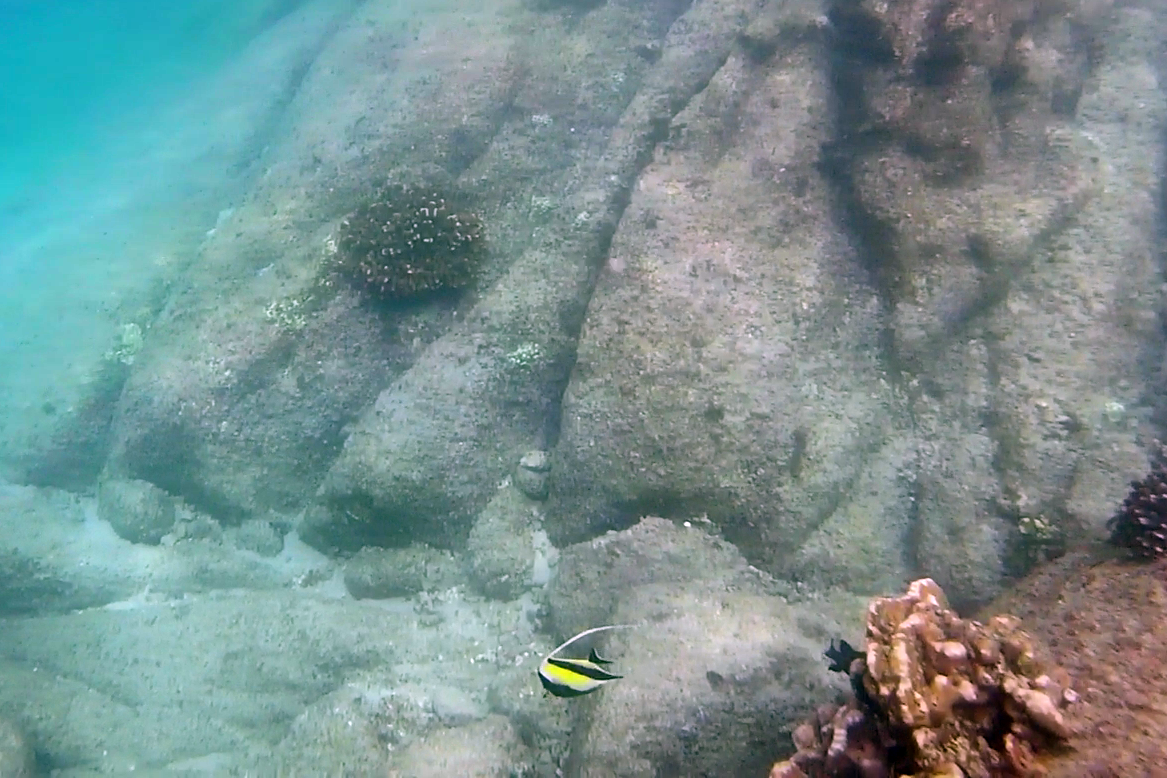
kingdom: Animalia
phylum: Chordata
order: Perciformes
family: Zanclidae
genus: Zanclus
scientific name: Zanclus cornutus
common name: Moorish idol
